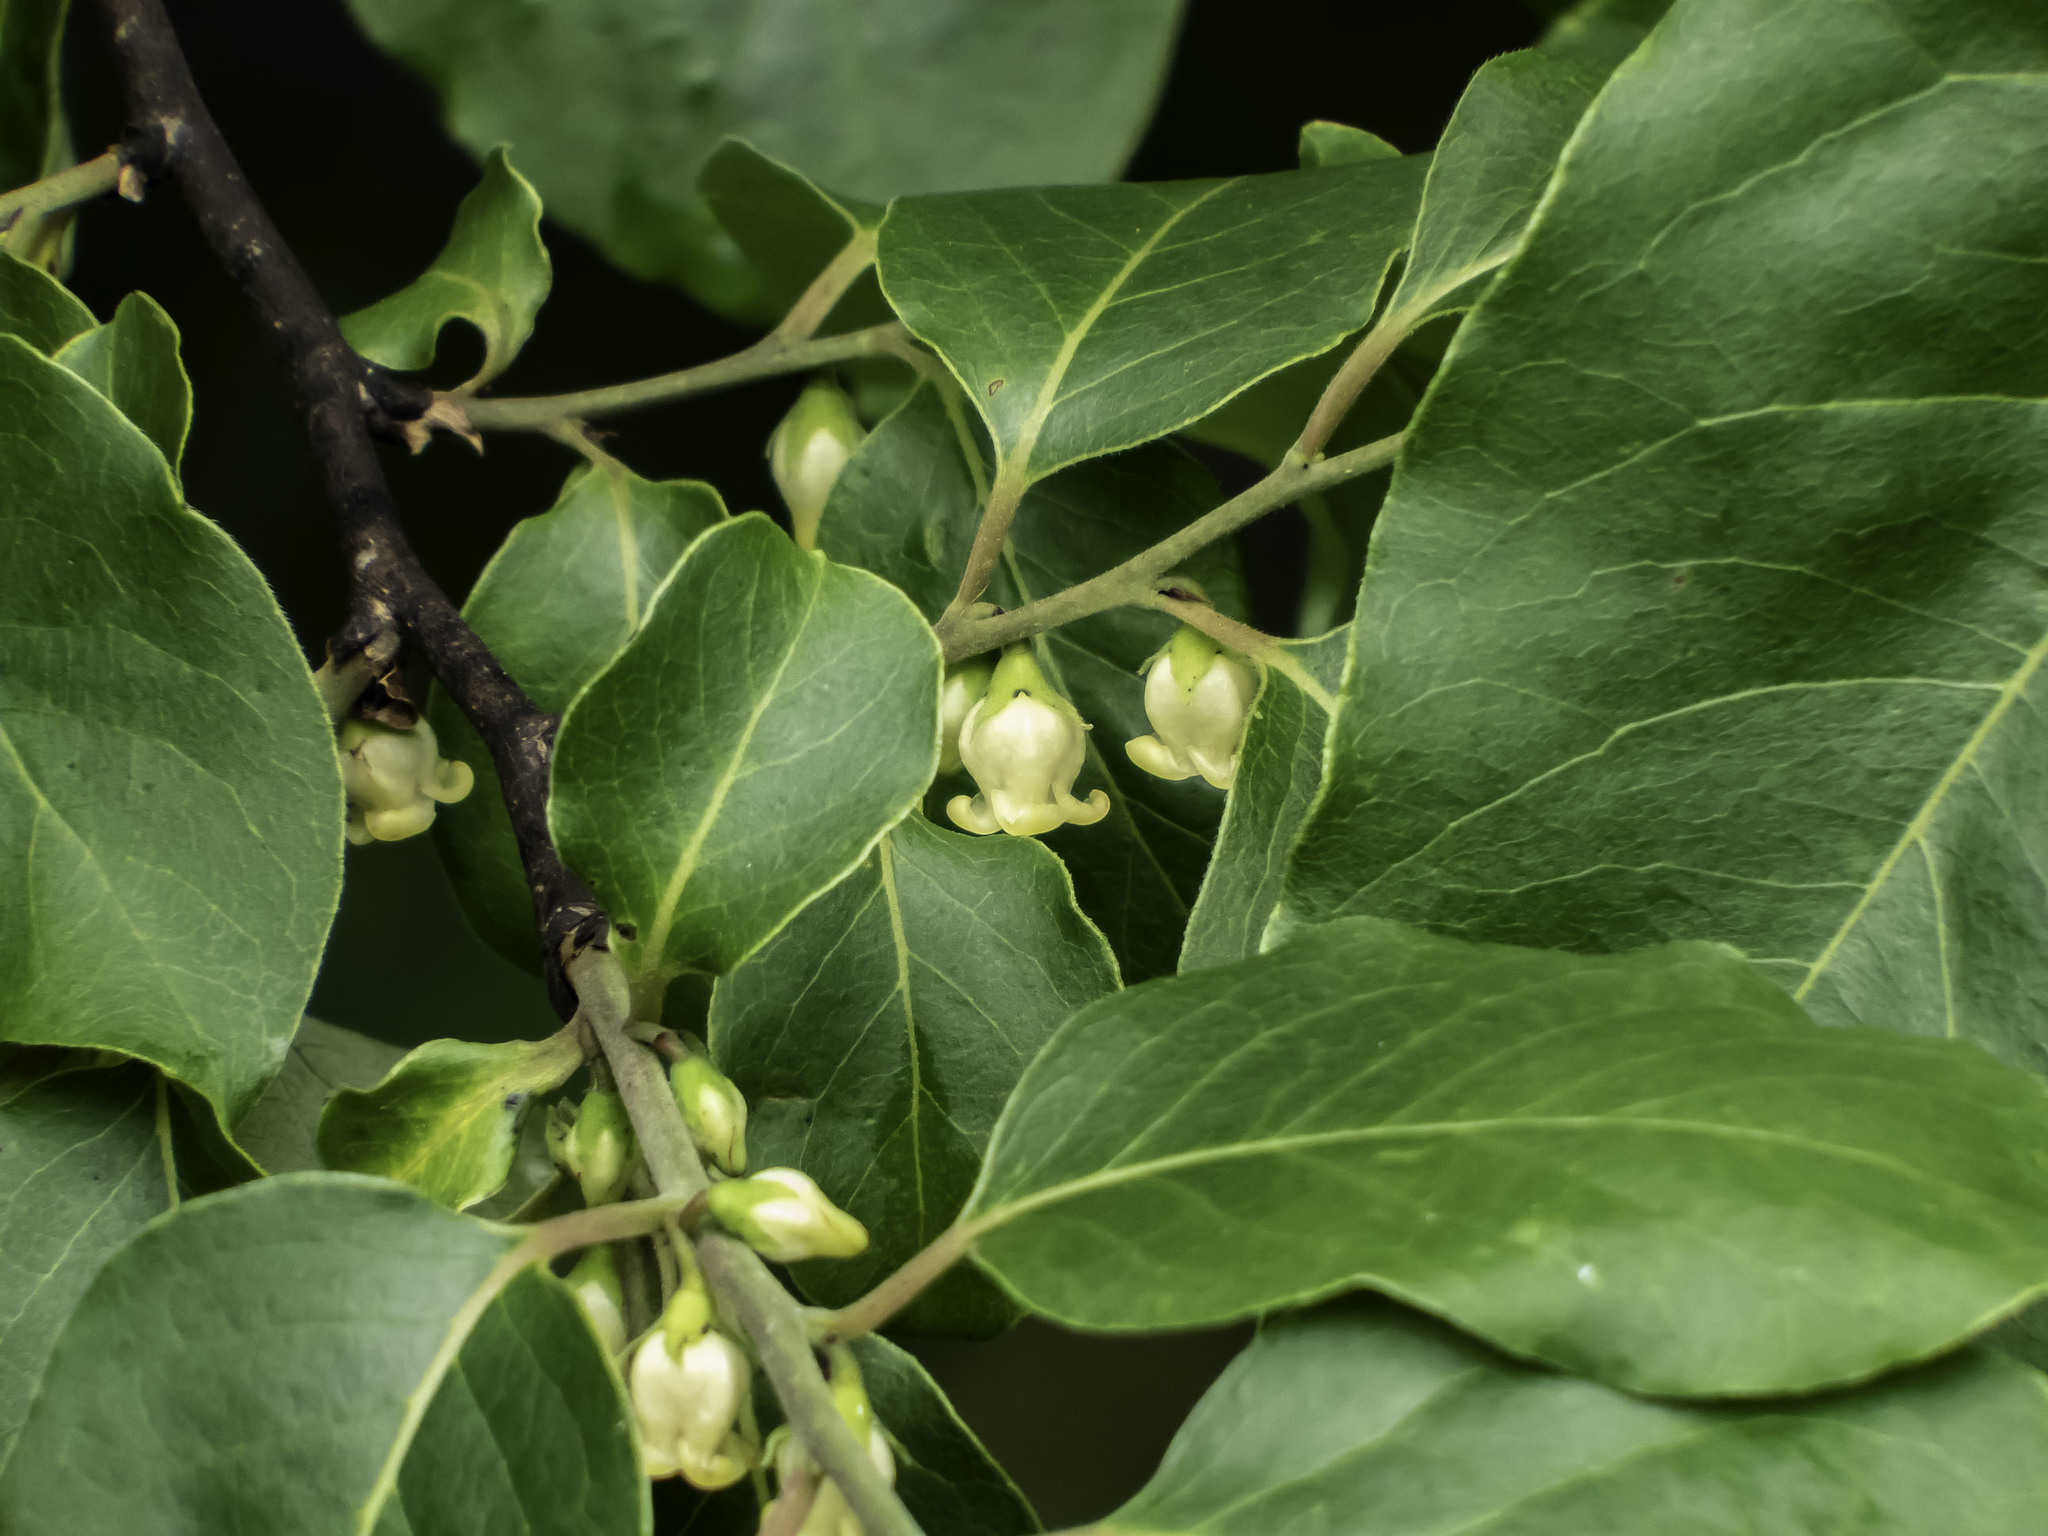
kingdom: Plantae
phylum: Tracheophyta
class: Magnoliopsida
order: Ericales
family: Ebenaceae
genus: Diospyros
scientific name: Diospyros virginiana
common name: Persimmon
